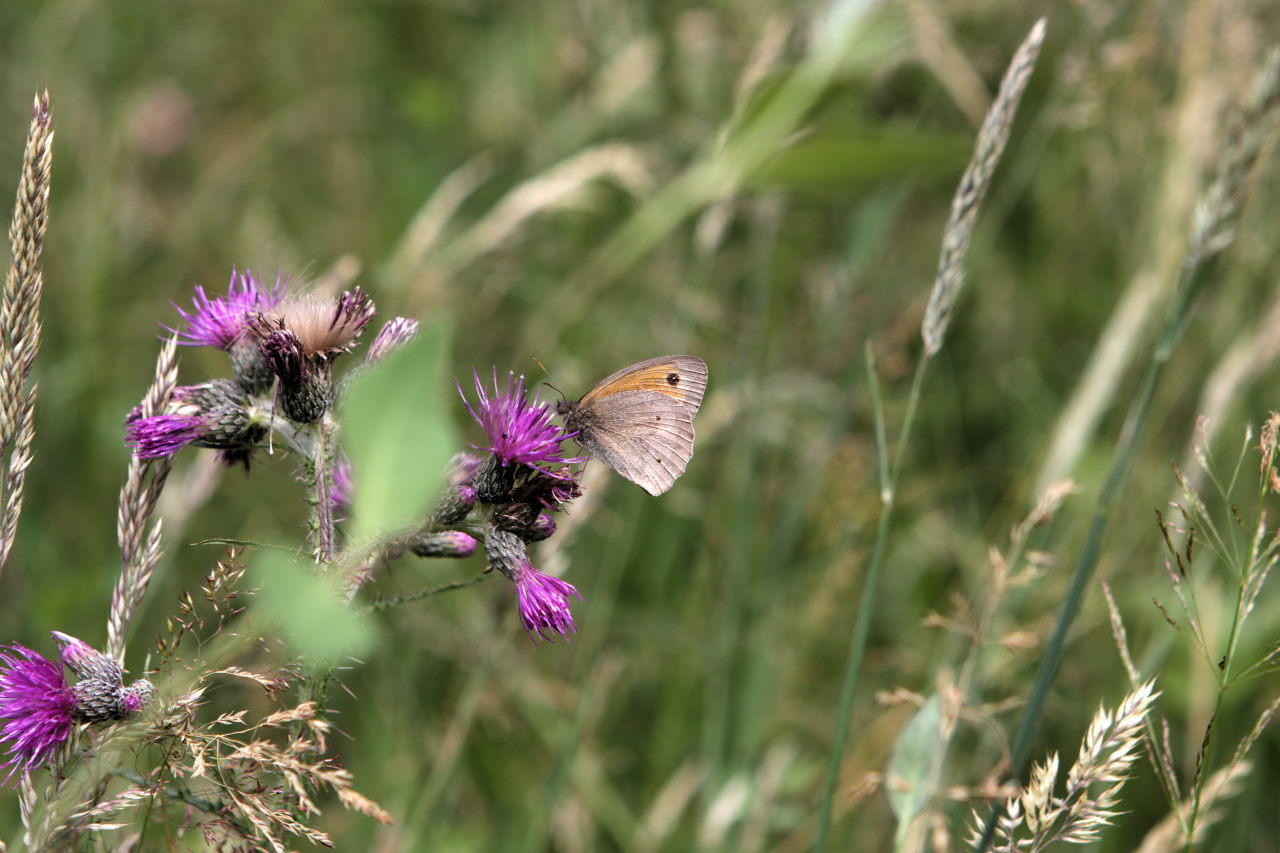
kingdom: Animalia
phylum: Arthropoda
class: Insecta
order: Lepidoptera
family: Nymphalidae
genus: Maniola
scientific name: Maniola jurtina
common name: Meadow brown
